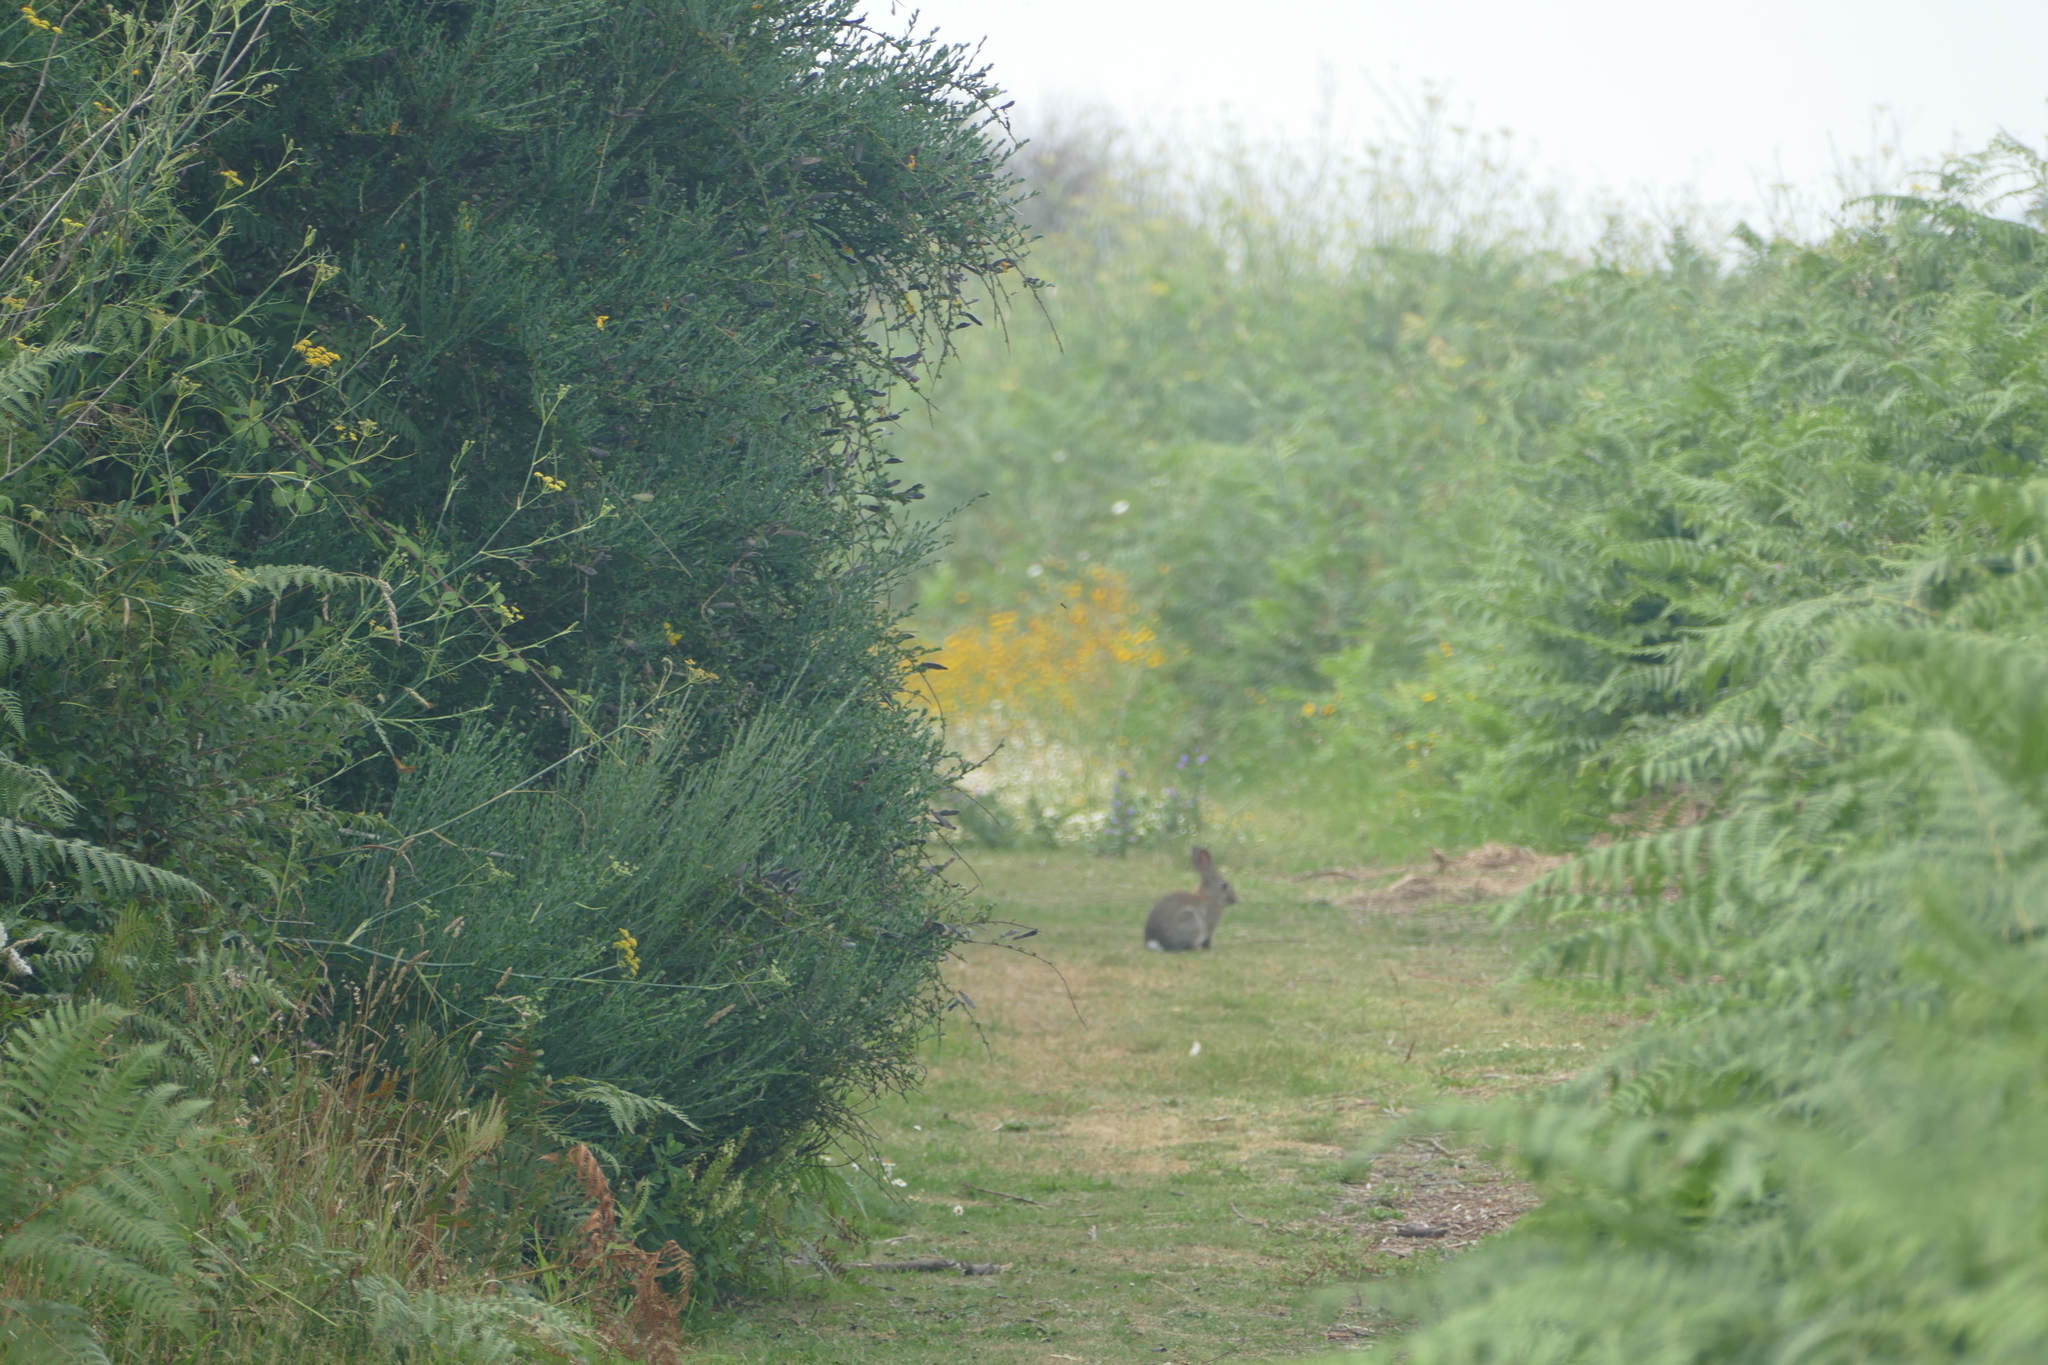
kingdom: Animalia
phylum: Chordata
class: Mammalia
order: Lagomorpha
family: Leporidae
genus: Oryctolagus
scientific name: Oryctolagus cuniculus
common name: European rabbit
